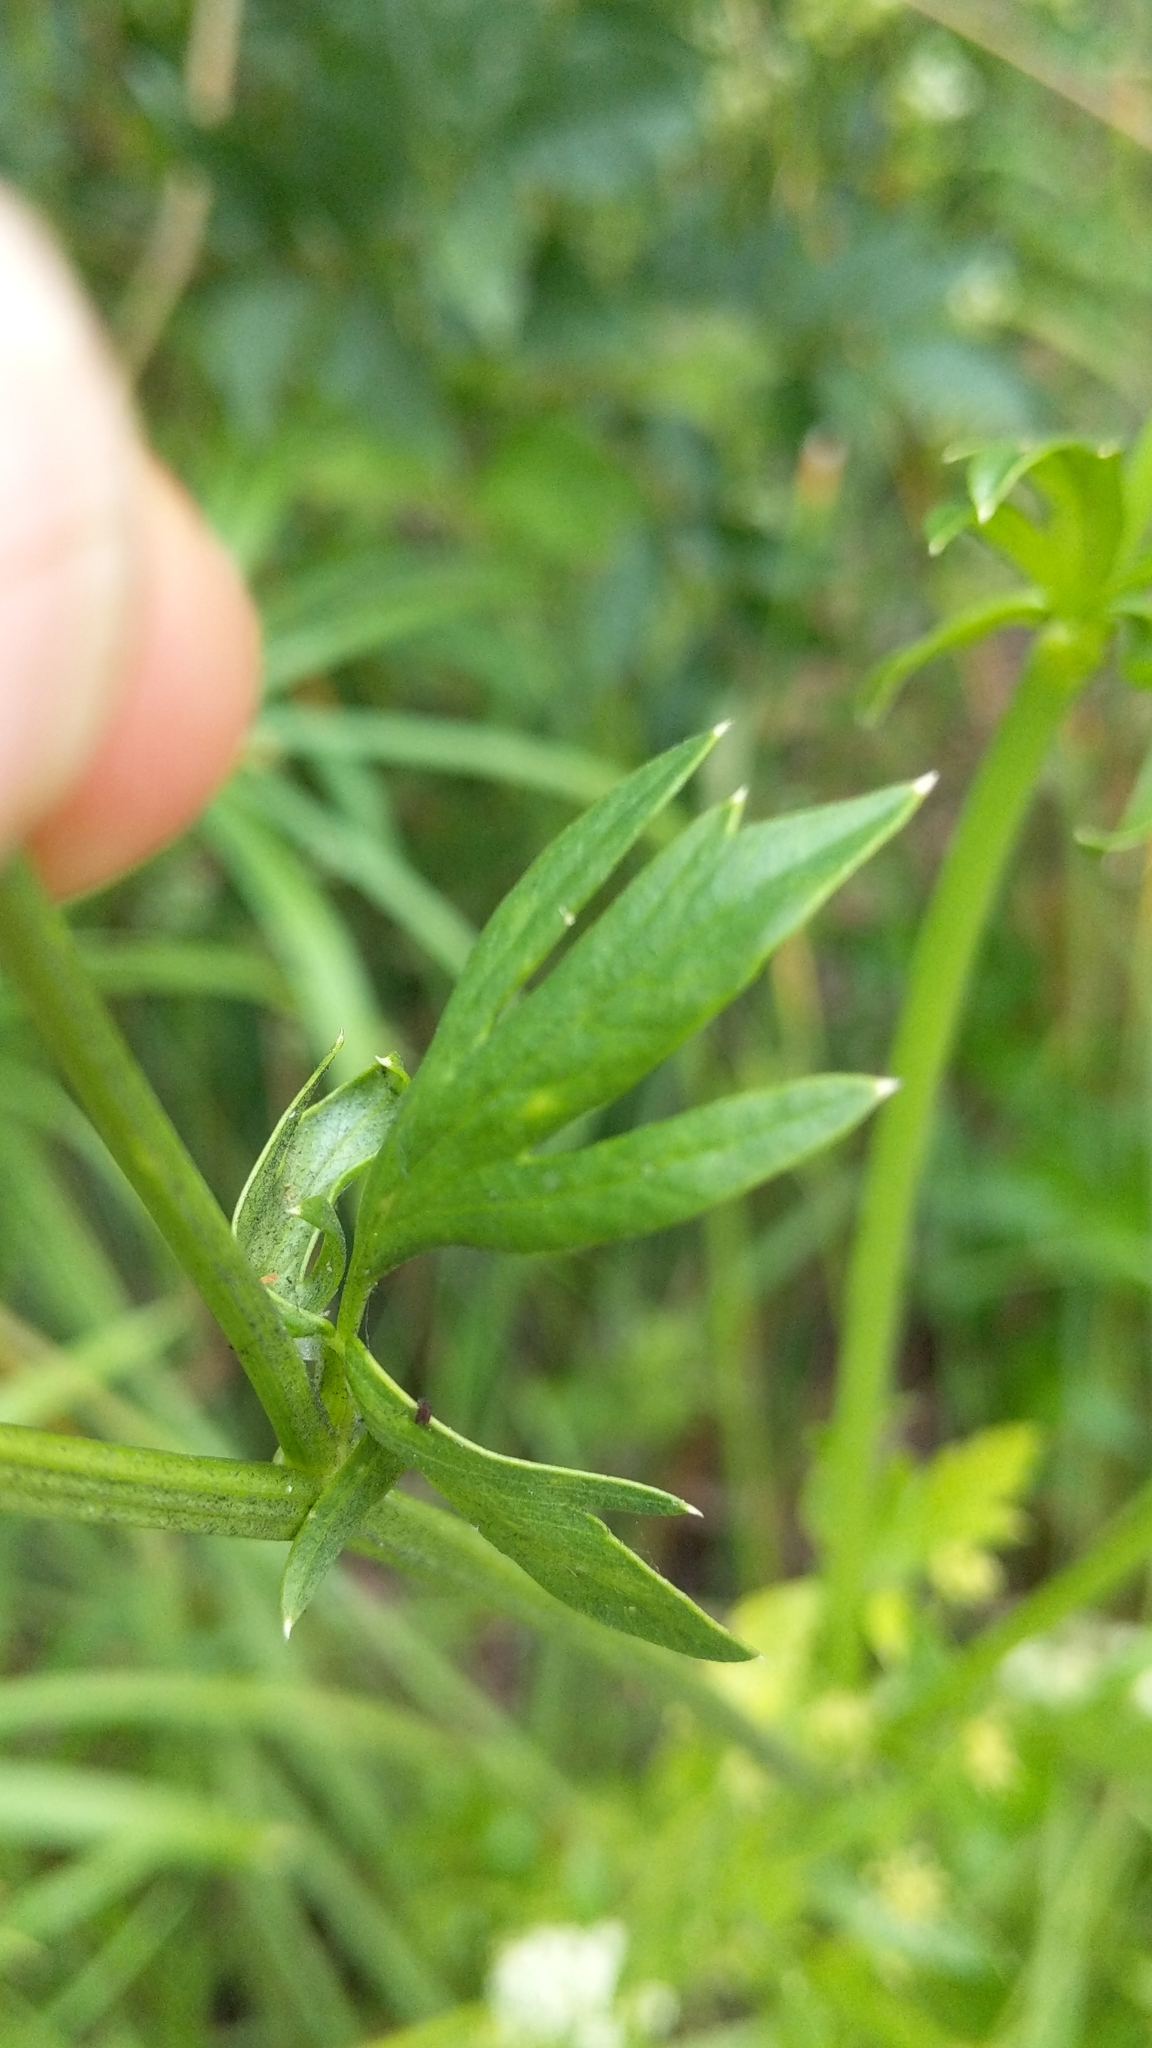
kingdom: Plantae
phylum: Tracheophyta
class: Magnoliopsida
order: Apiales
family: Apiaceae
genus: Apium
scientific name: Apium graveolens
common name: Wild celery
